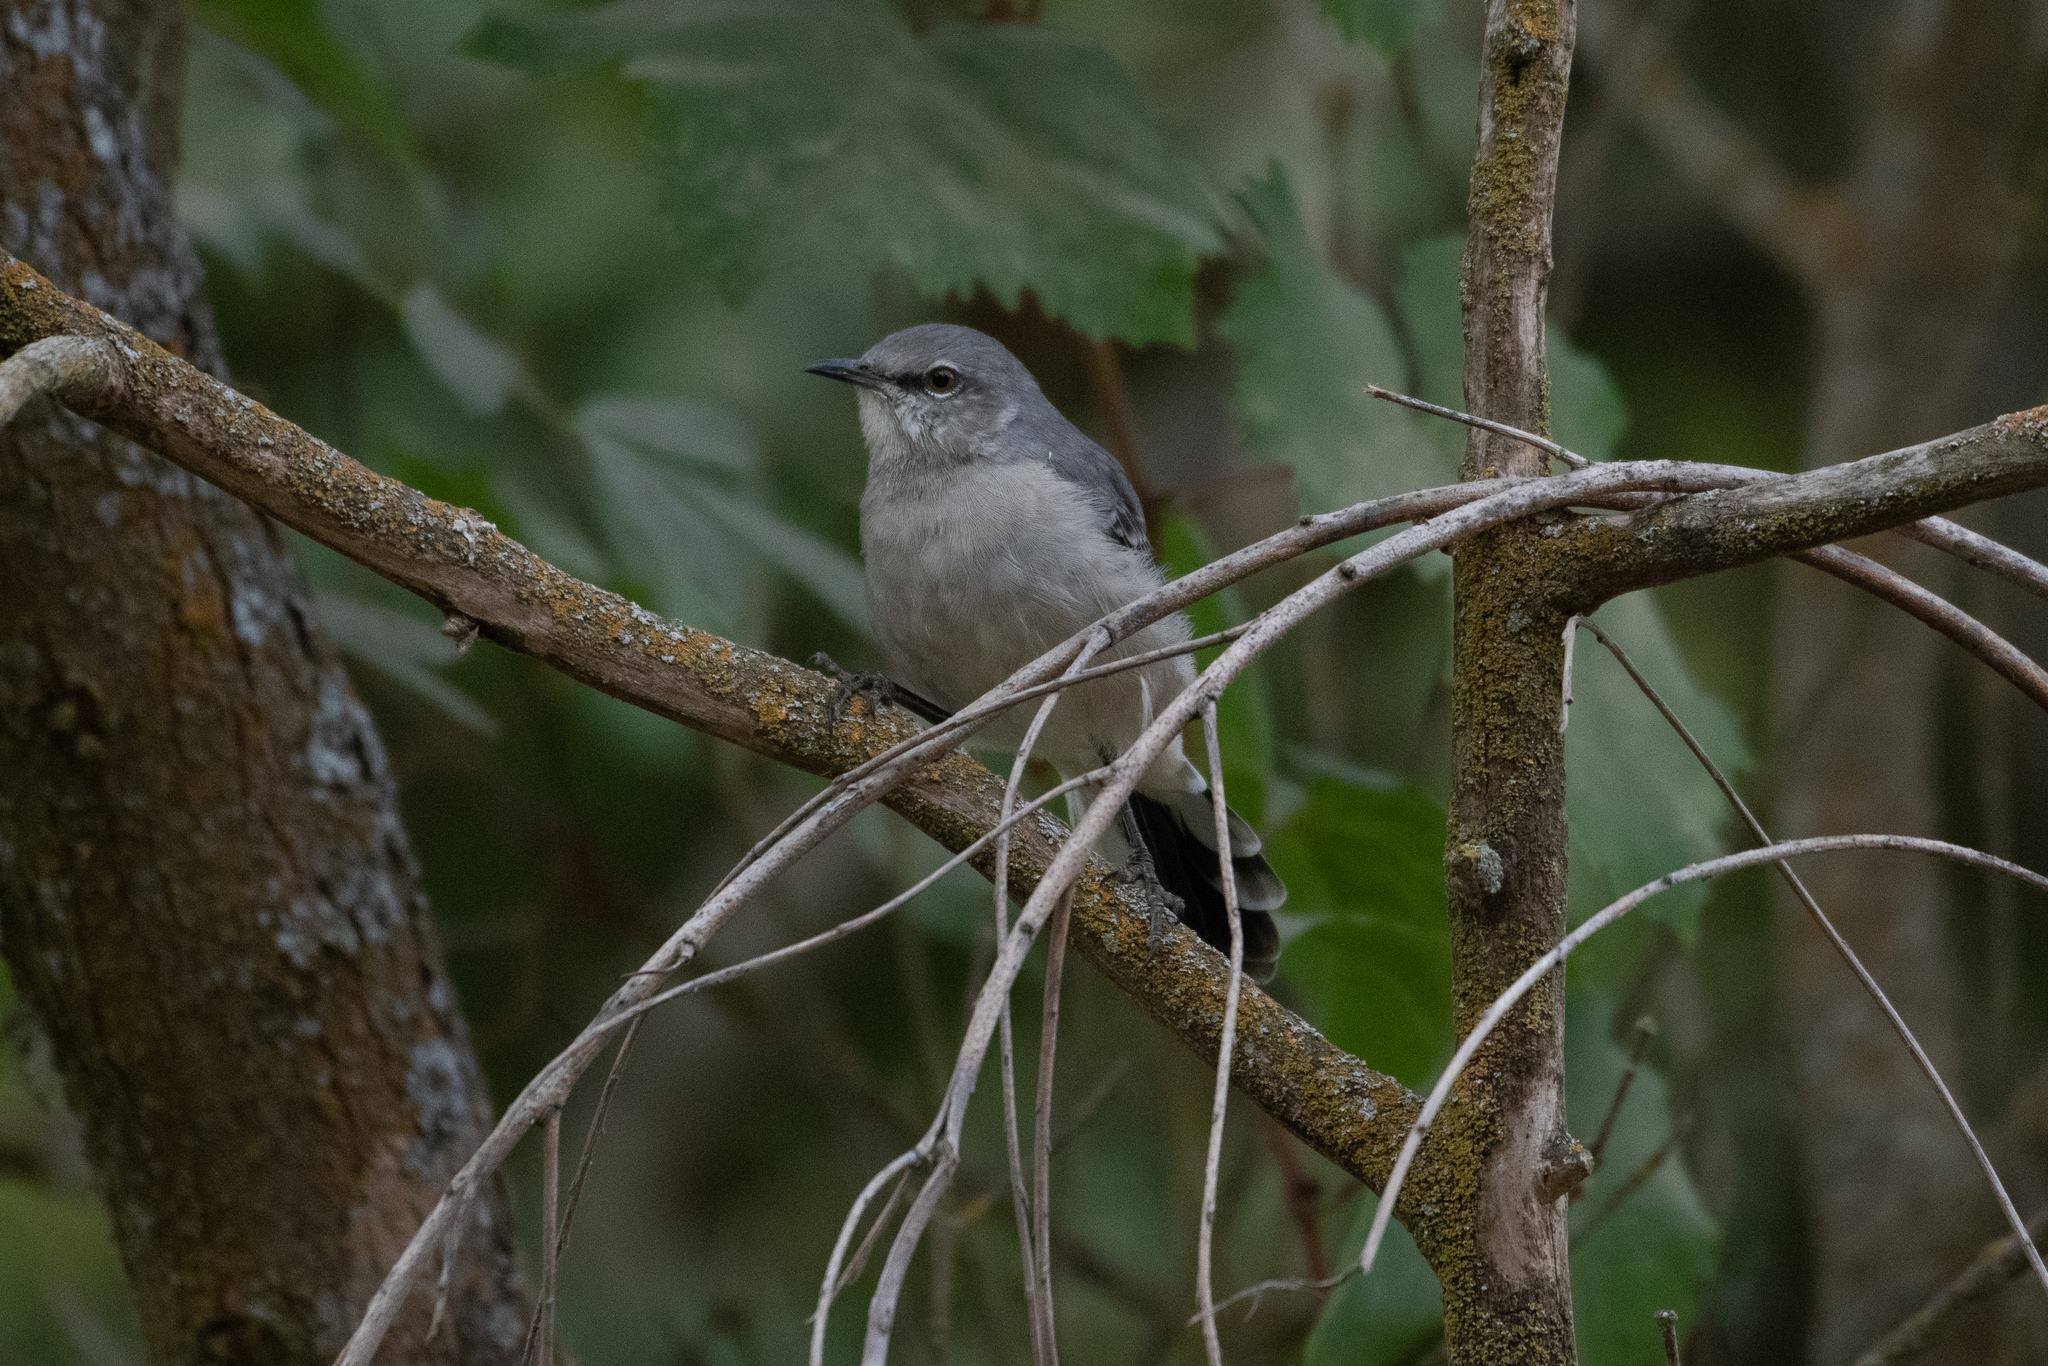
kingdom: Animalia
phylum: Chordata
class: Aves
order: Passeriformes
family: Mimidae
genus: Mimus
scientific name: Mimus polyglottos
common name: Northern mockingbird
